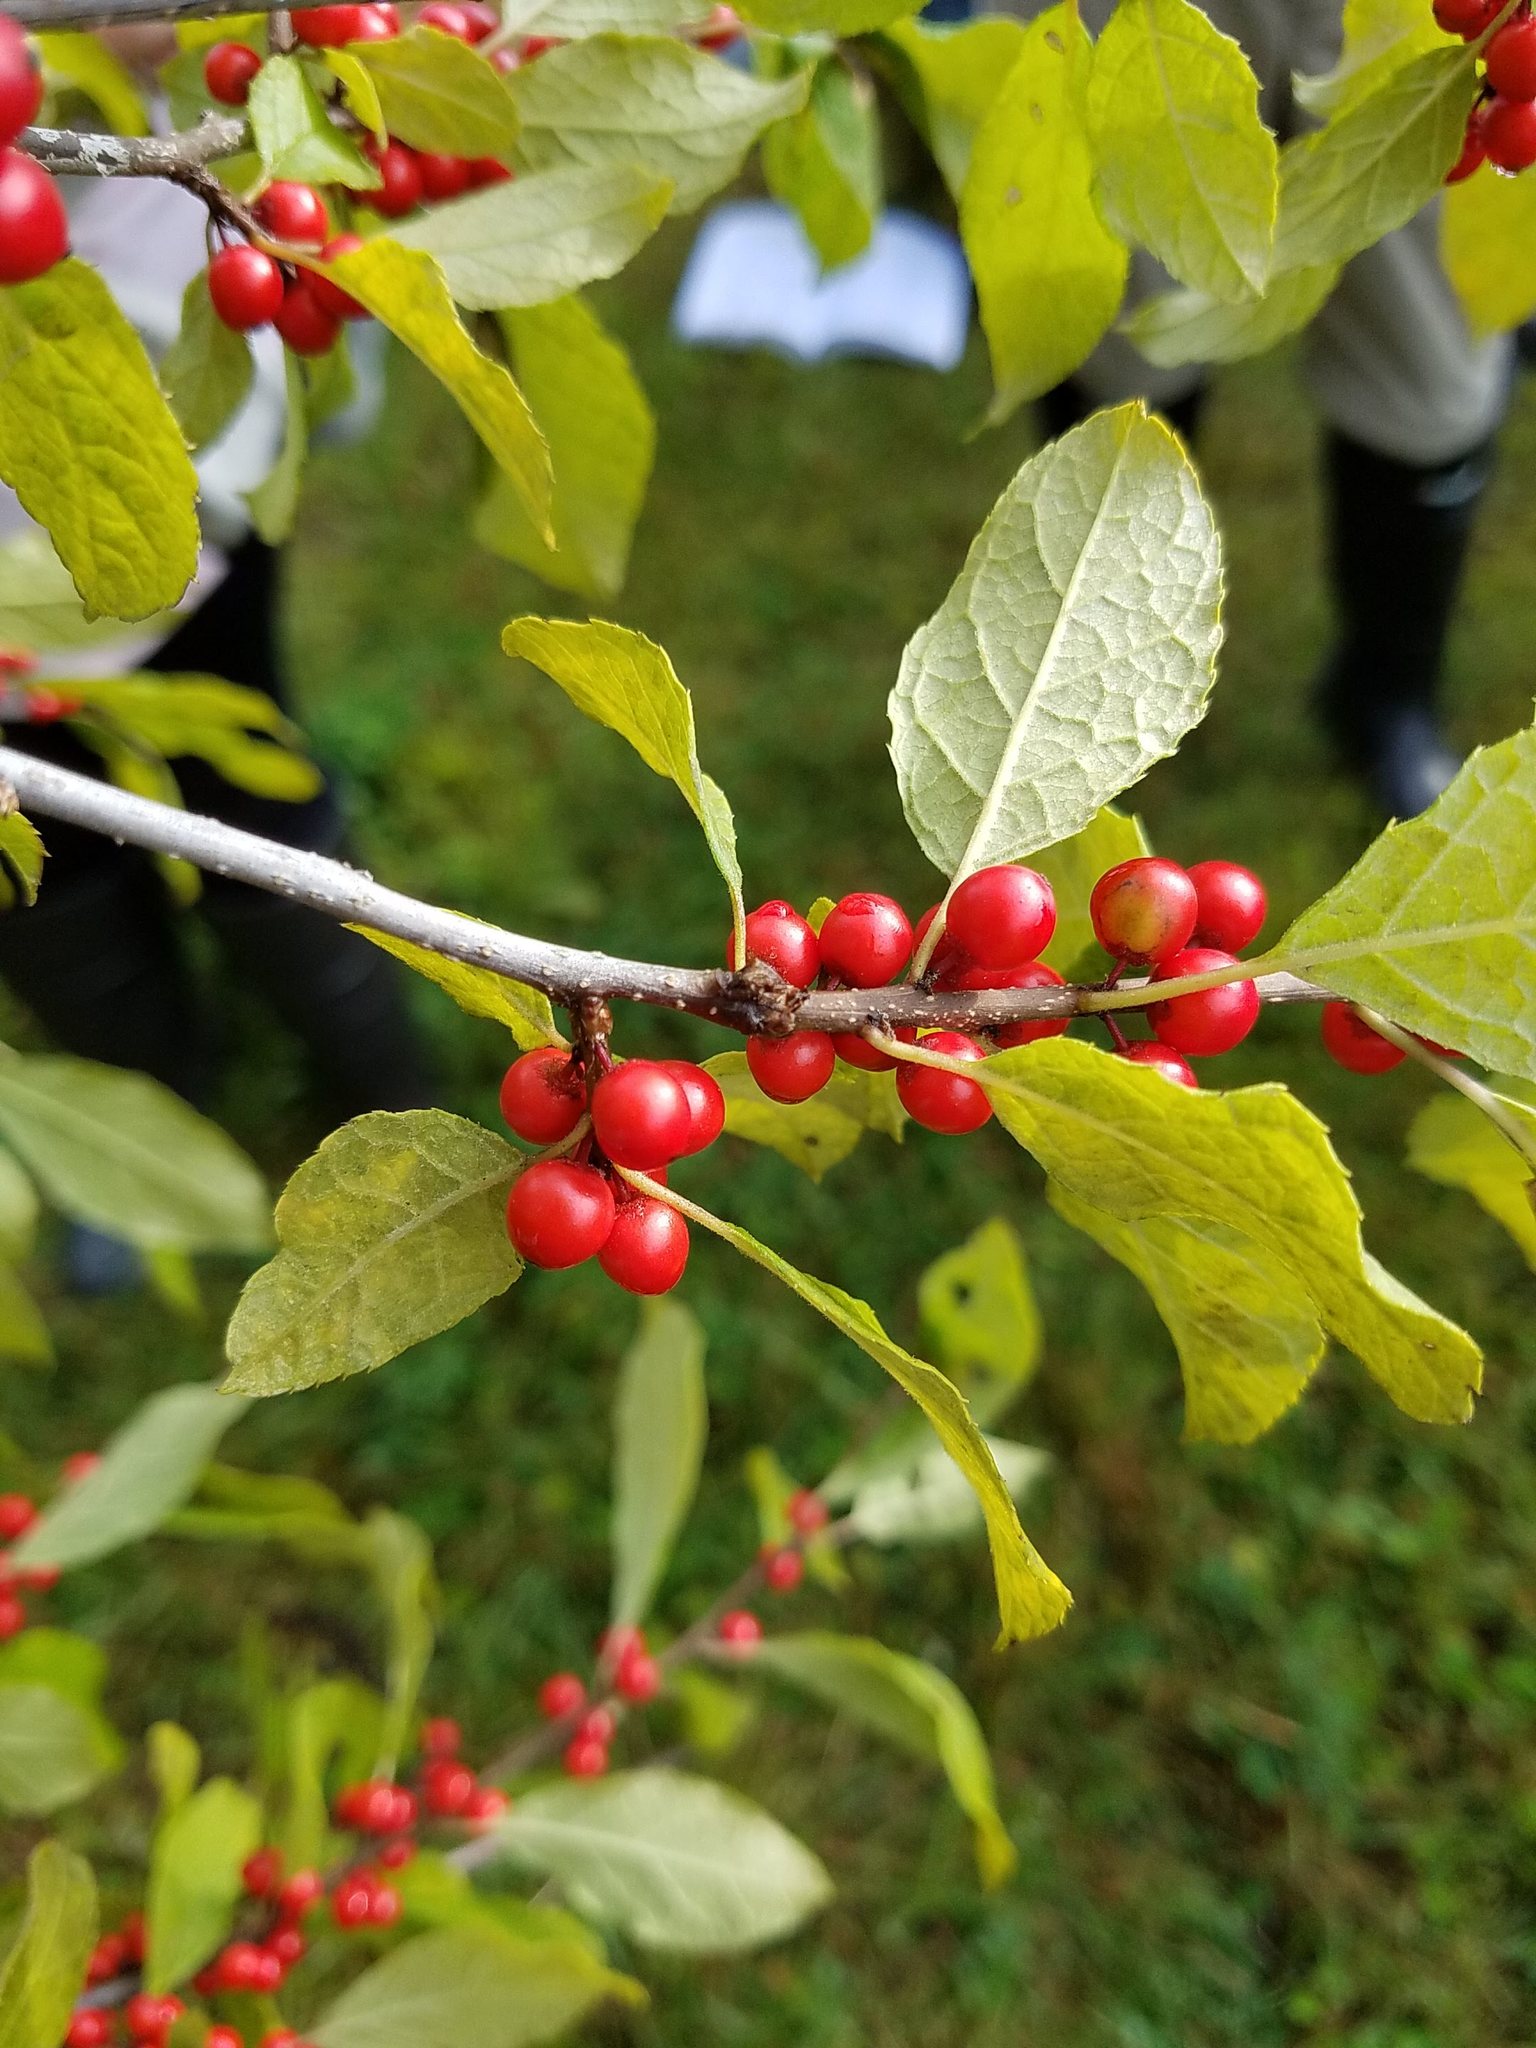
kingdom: Plantae
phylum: Tracheophyta
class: Magnoliopsida
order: Aquifoliales
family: Aquifoliaceae
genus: Ilex
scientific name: Ilex verticillata
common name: Virginia winterberry
